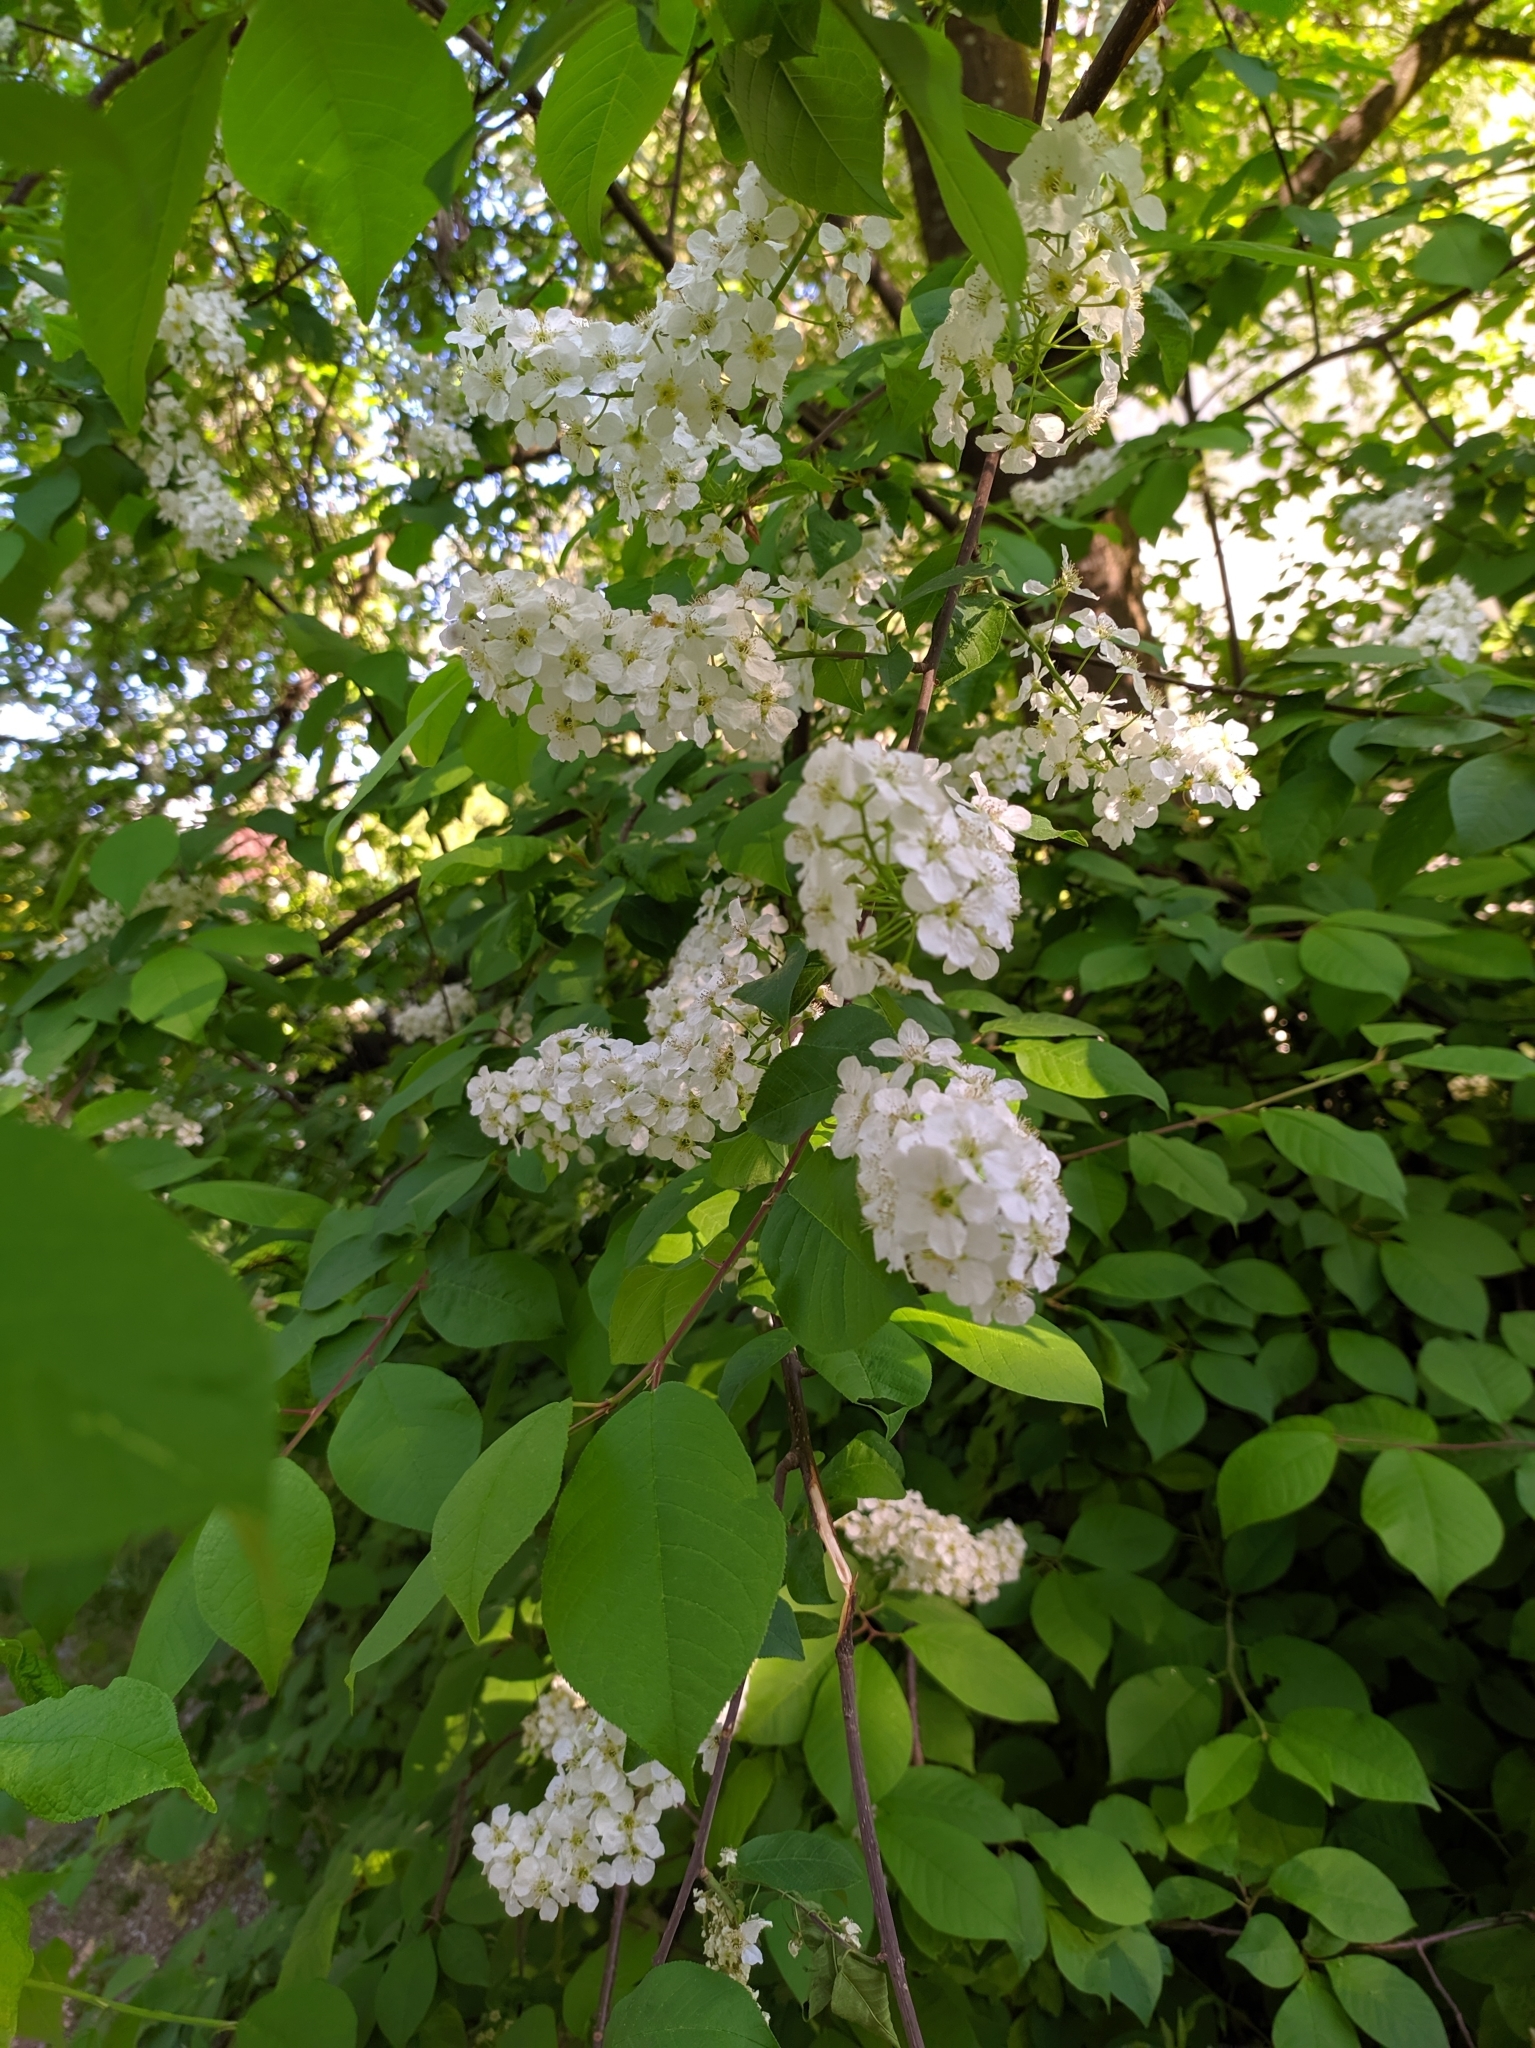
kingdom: Plantae
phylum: Tracheophyta
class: Magnoliopsida
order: Rosales
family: Rosaceae
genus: Prunus
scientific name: Prunus padus
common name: Bird cherry
